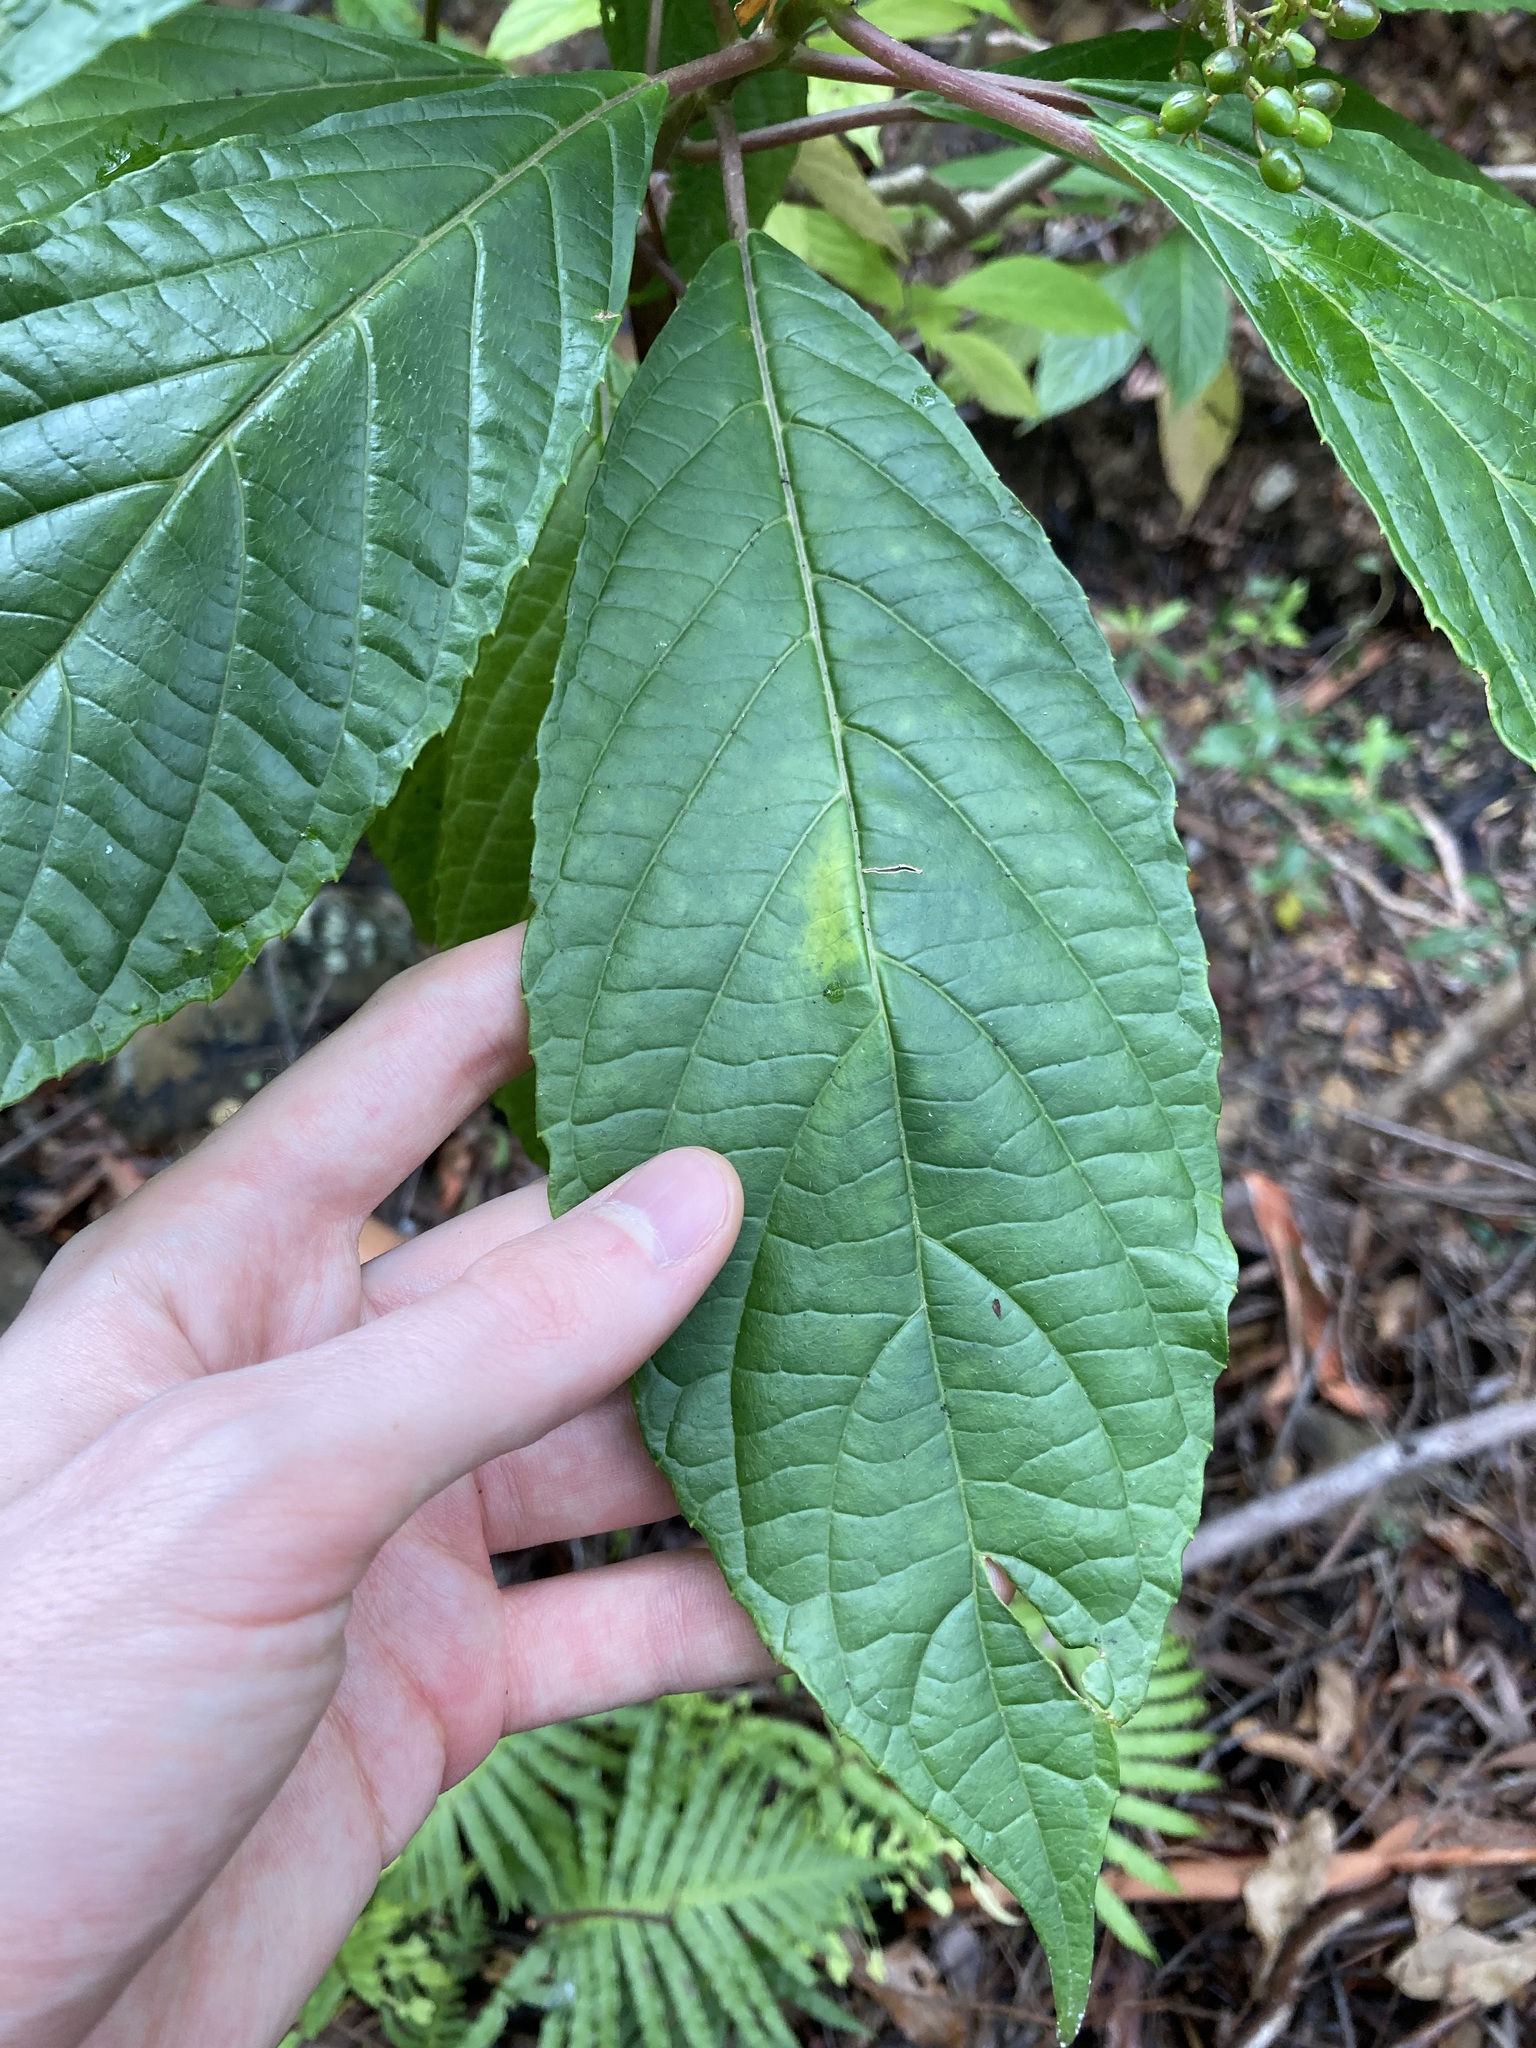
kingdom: Plantae
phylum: Tracheophyta
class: Magnoliopsida
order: Asterales
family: Rousseaceae
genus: Abrophyllum
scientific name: Abrophyllum ornans
